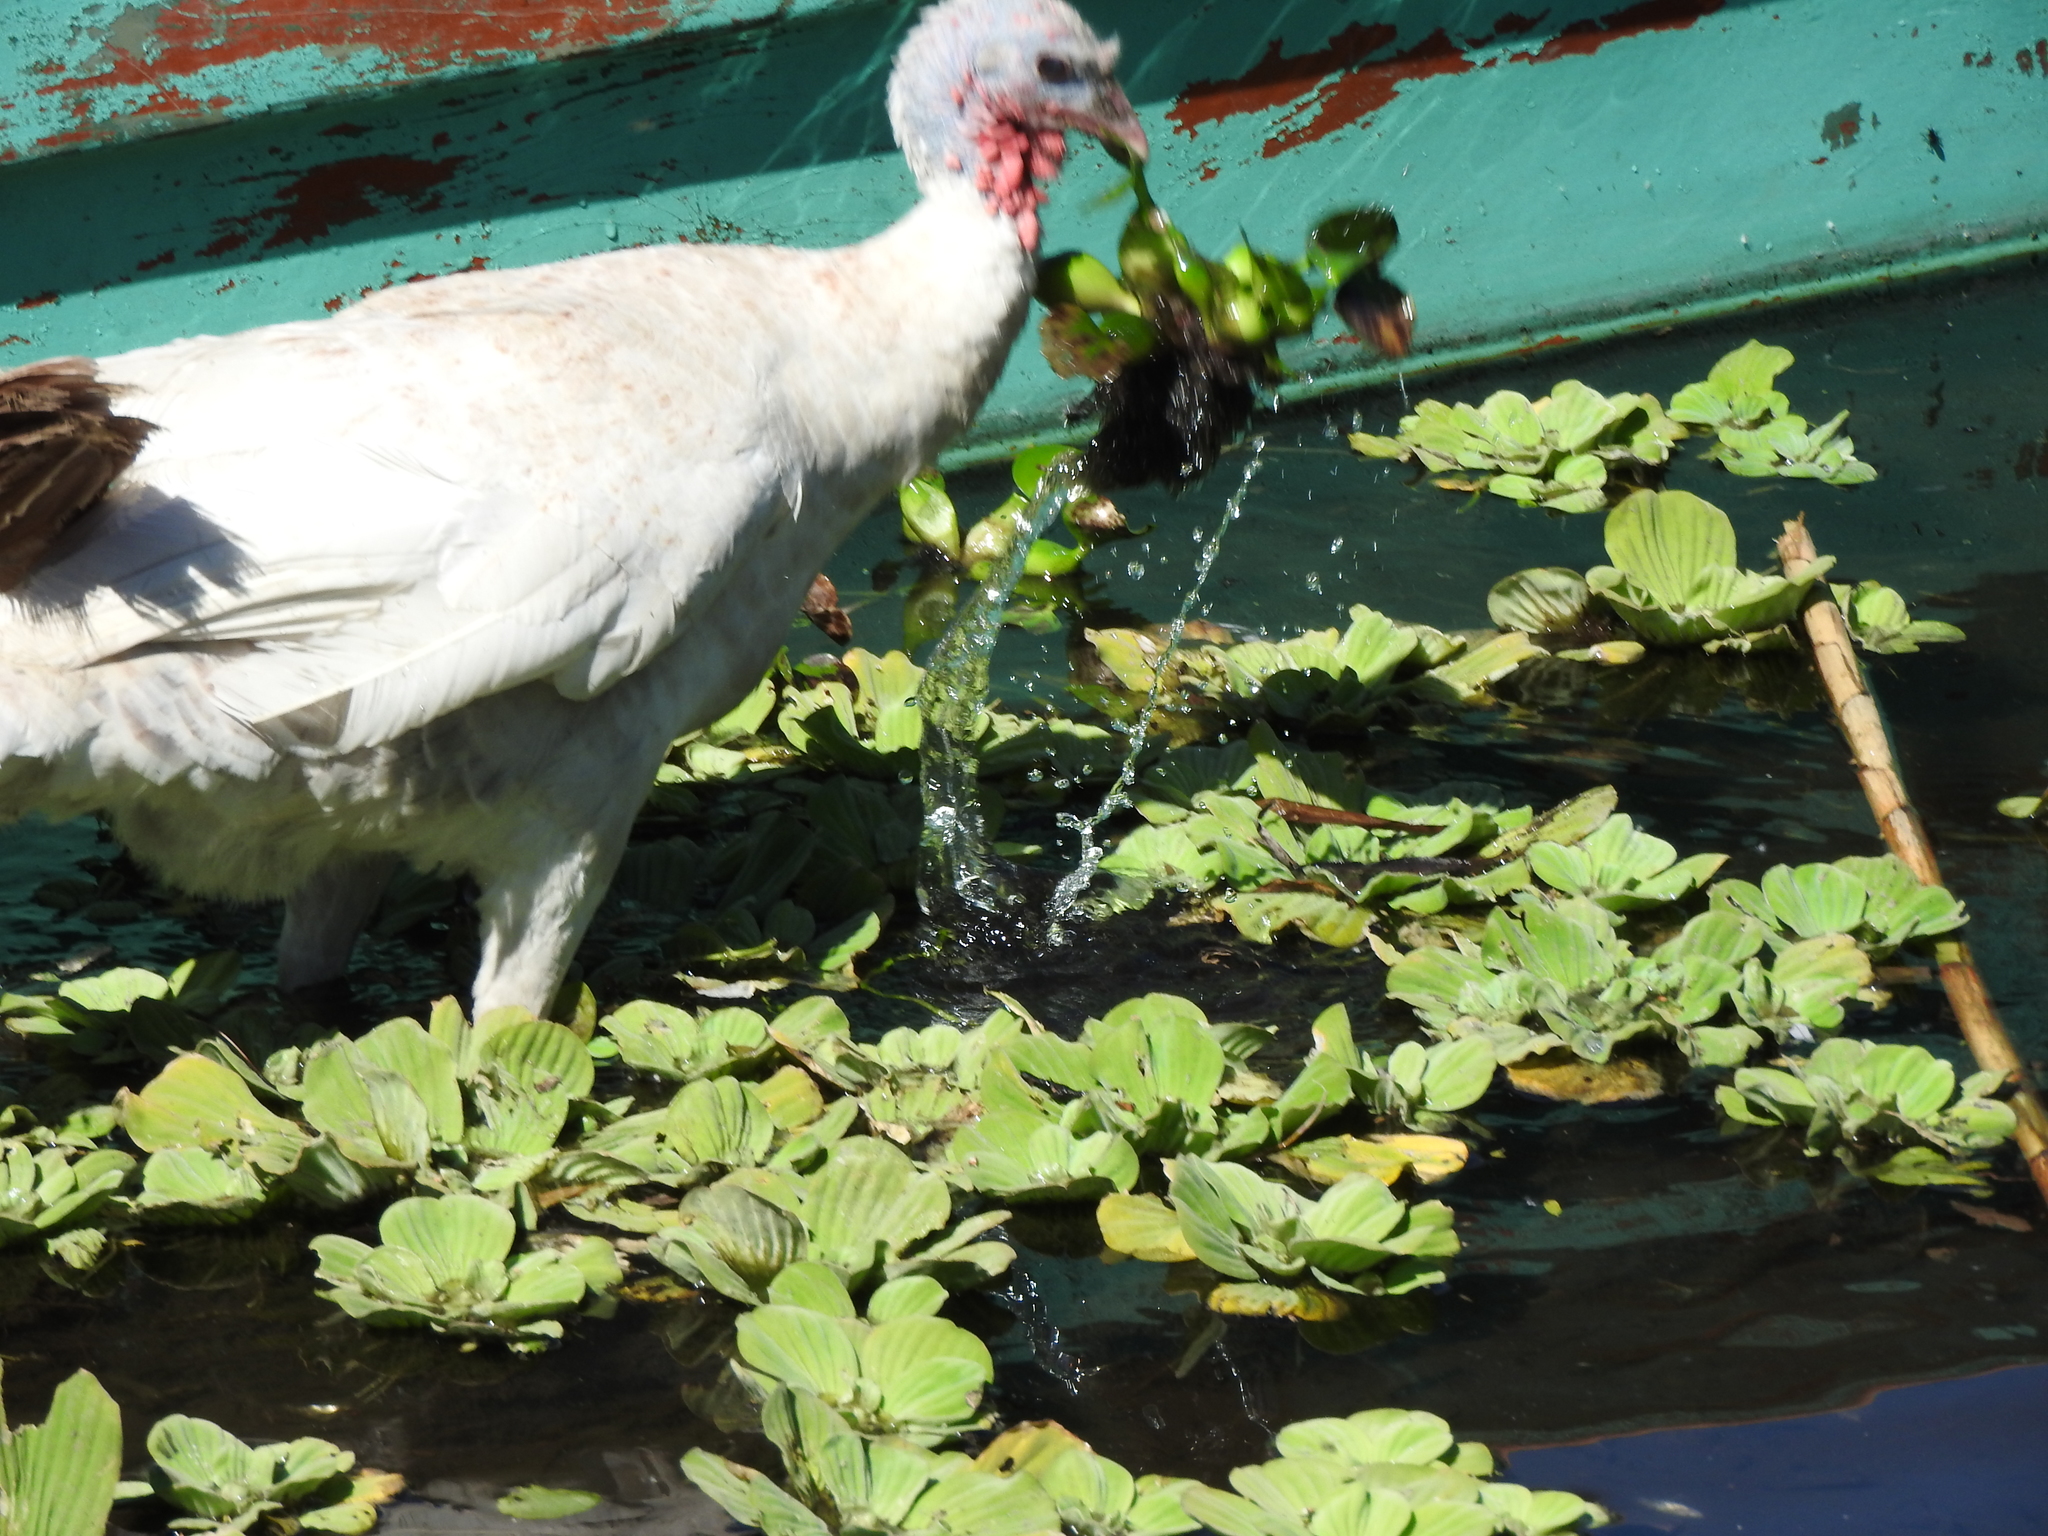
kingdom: Plantae
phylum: Tracheophyta
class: Liliopsida
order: Commelinales
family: Pontederiaceae
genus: Pontederia
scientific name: Pontederia crassipes
